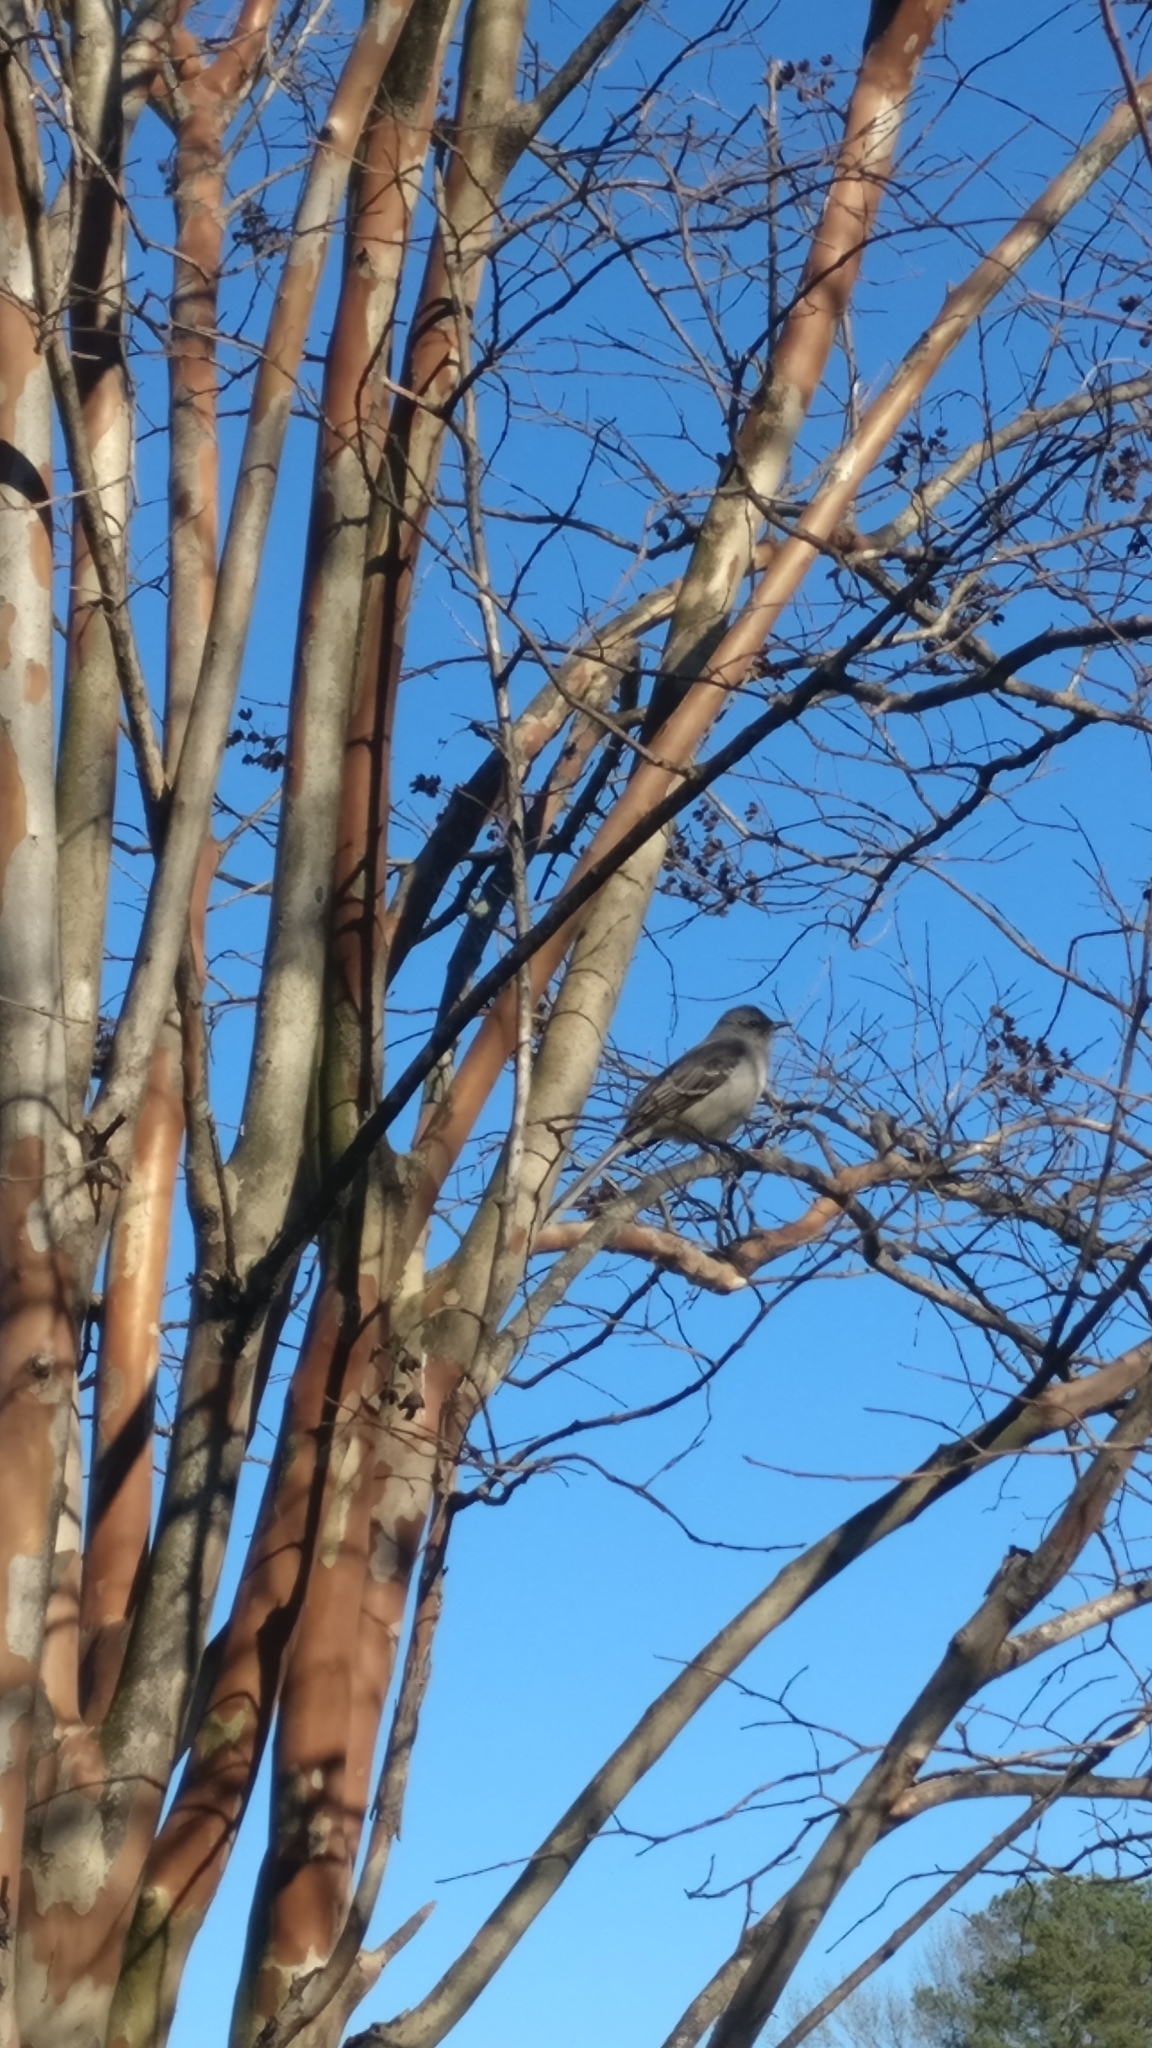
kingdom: Animalia
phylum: Chordata
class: Aves
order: Passeriformes
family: Mimidae
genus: Mimus
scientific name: Mimus polyglottos
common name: Northern mockingbird
